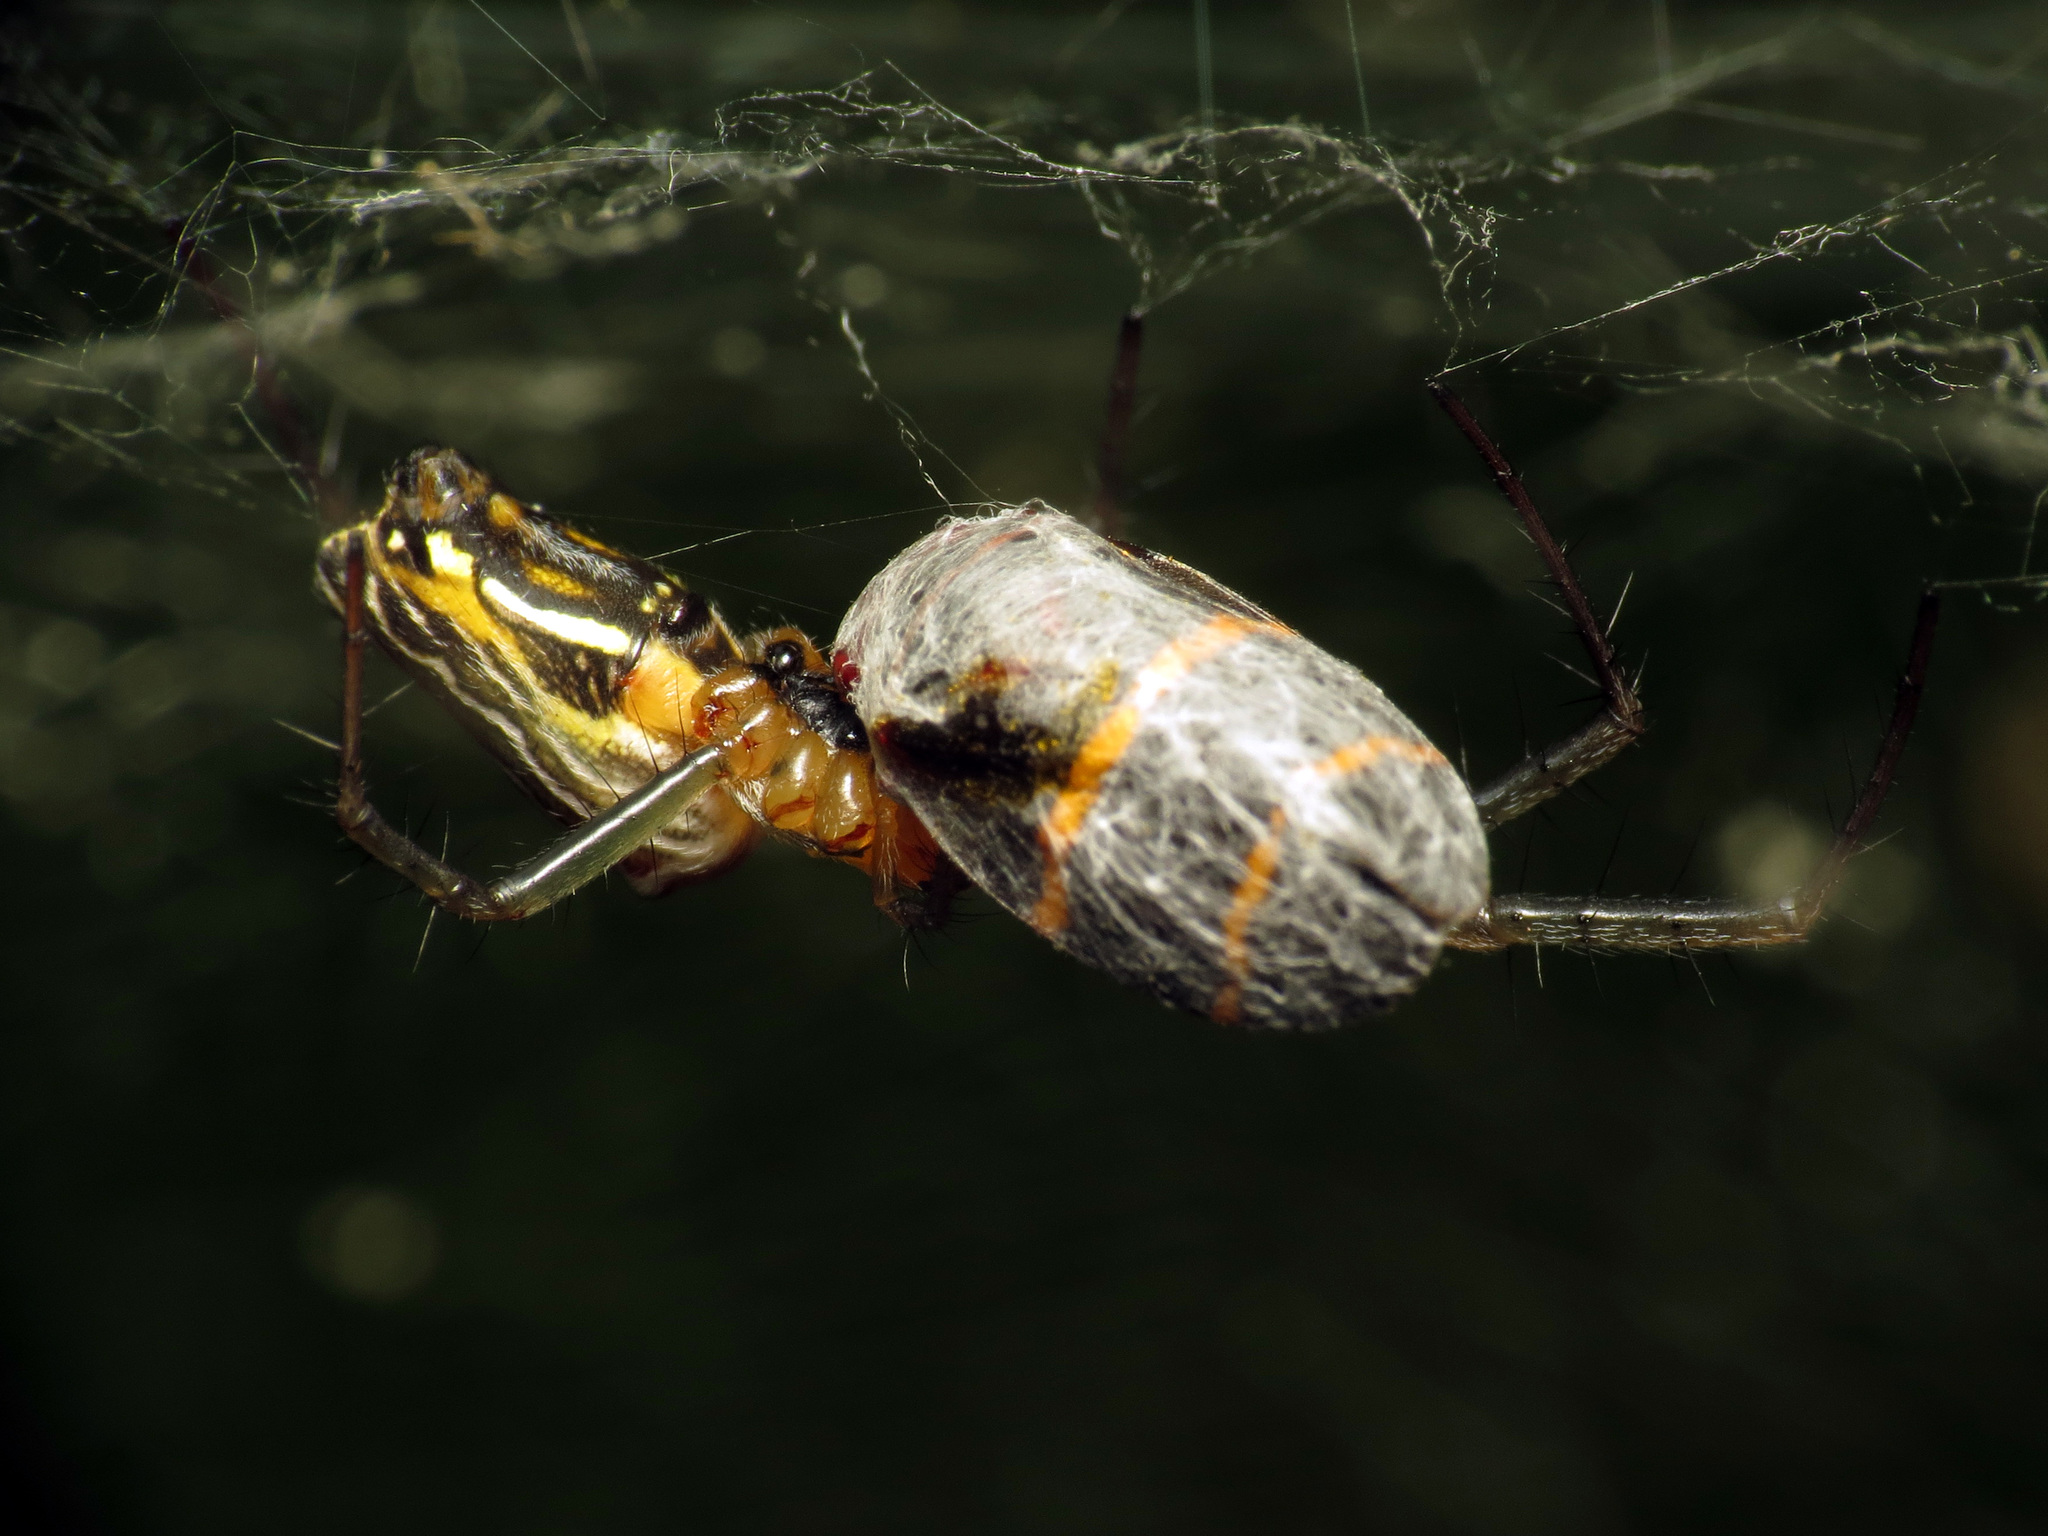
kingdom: Animalia
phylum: Arthropoda
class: Arachnida
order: Araneae
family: Araneidae
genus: Mecynogea
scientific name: Mecynogea lemniscata
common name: Orb weavers
